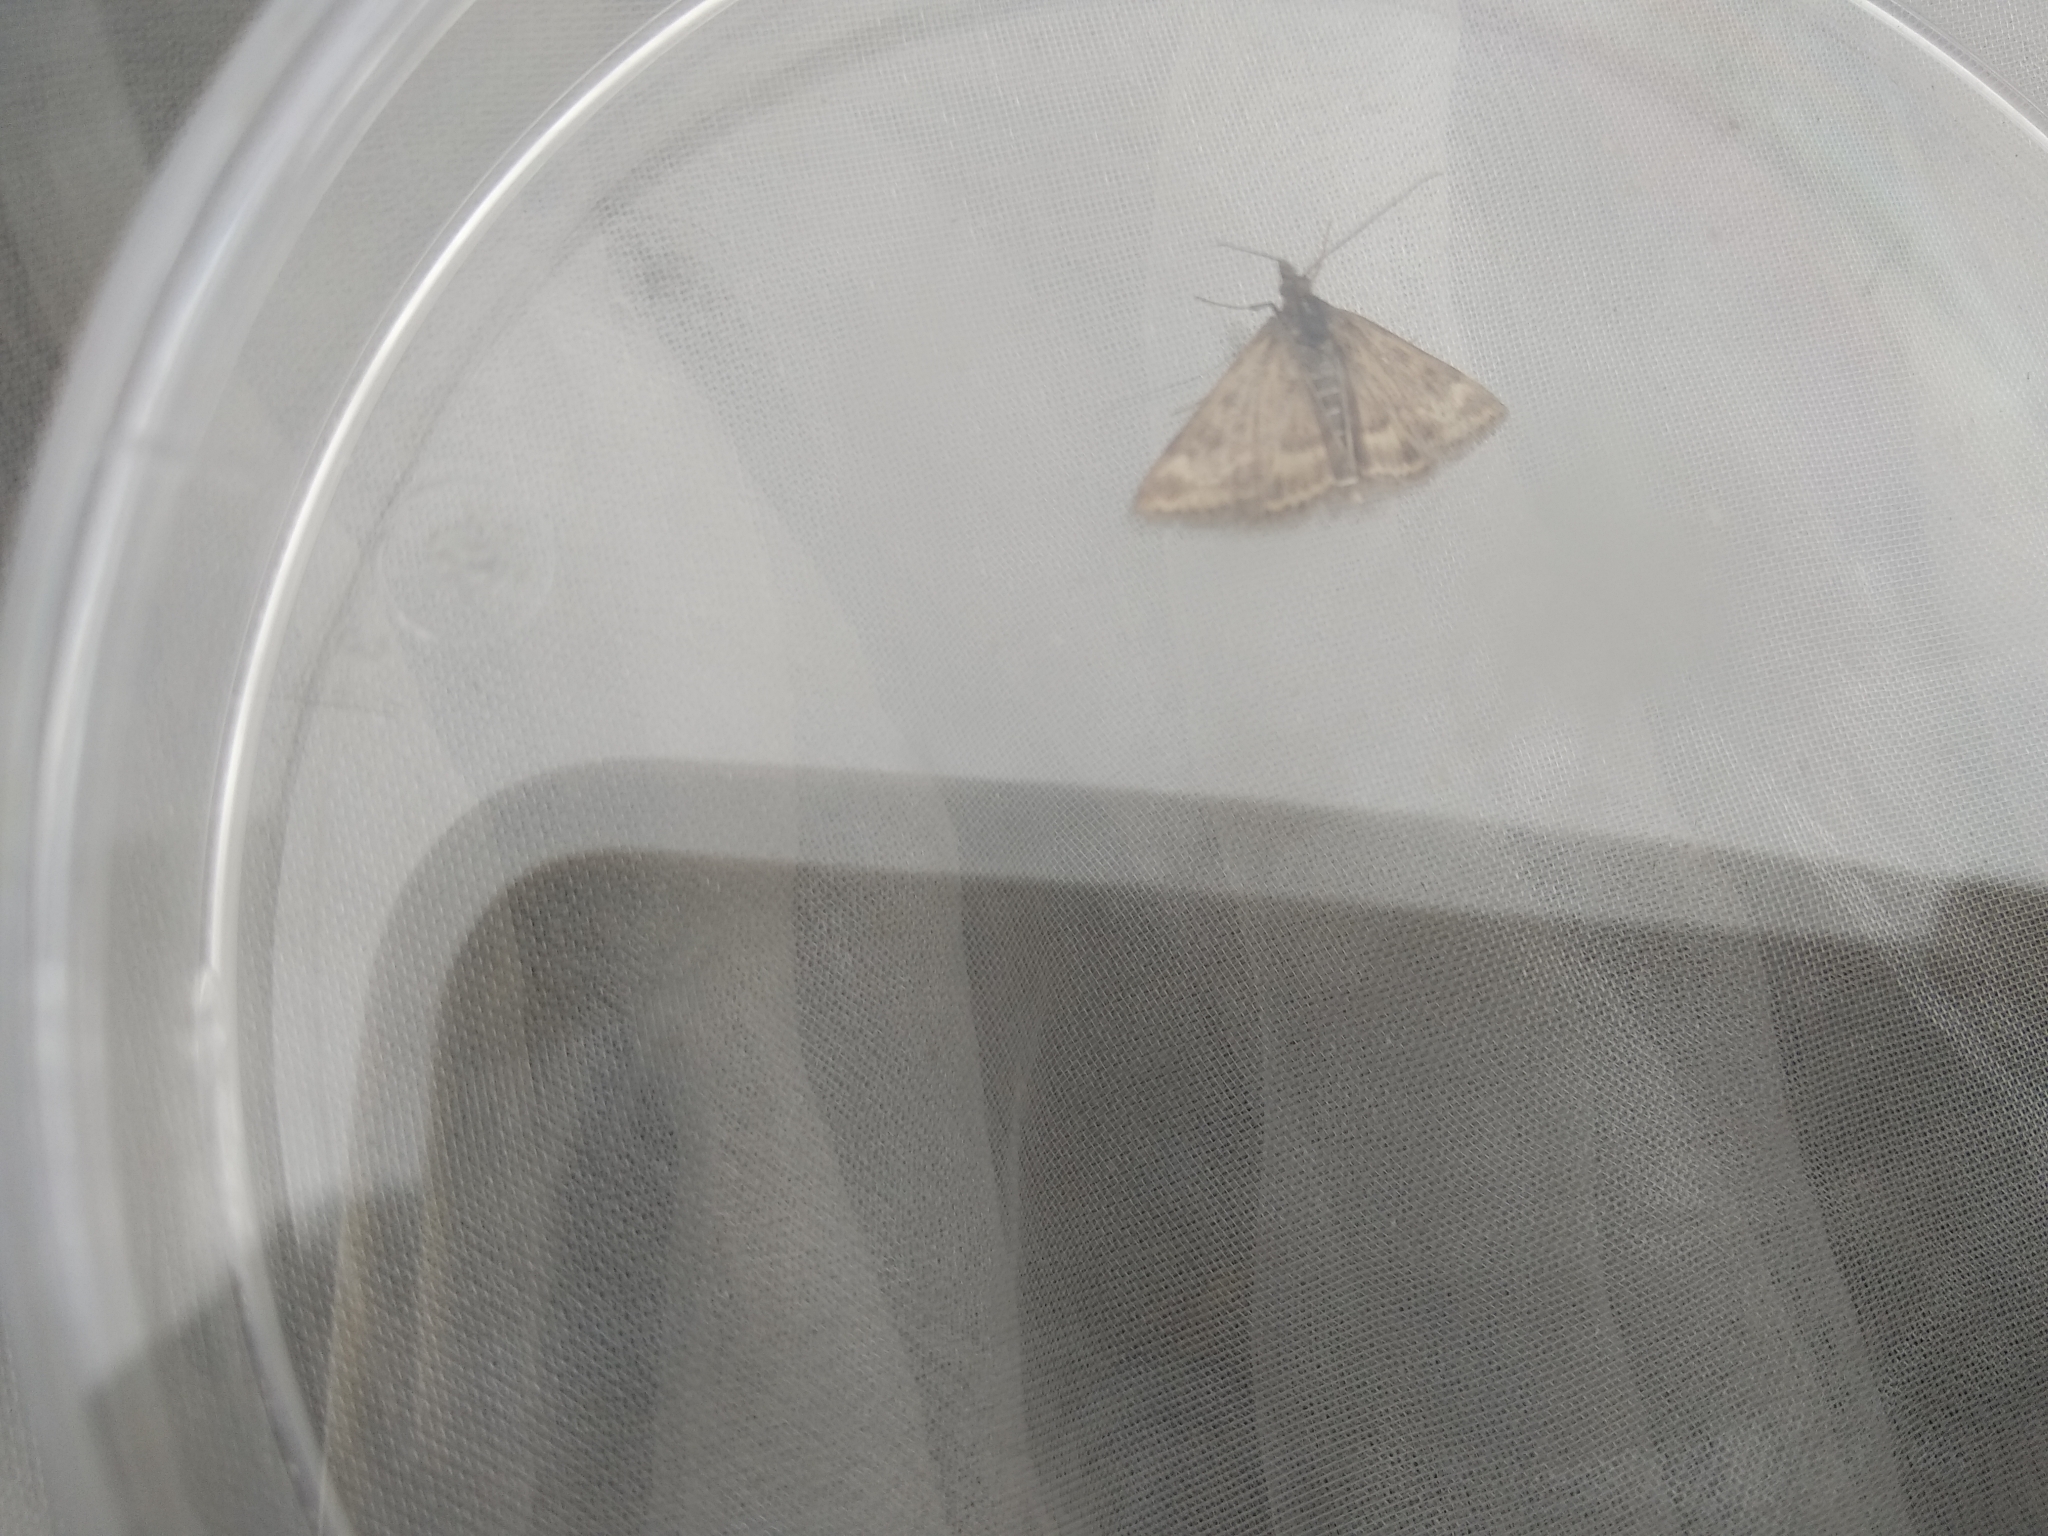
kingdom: Animalia
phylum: Arthropoda
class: Insecta
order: Lepidoptera
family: Crambidae
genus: Pyrausta
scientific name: Pyrausta despicata
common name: Straw-barred pearl
